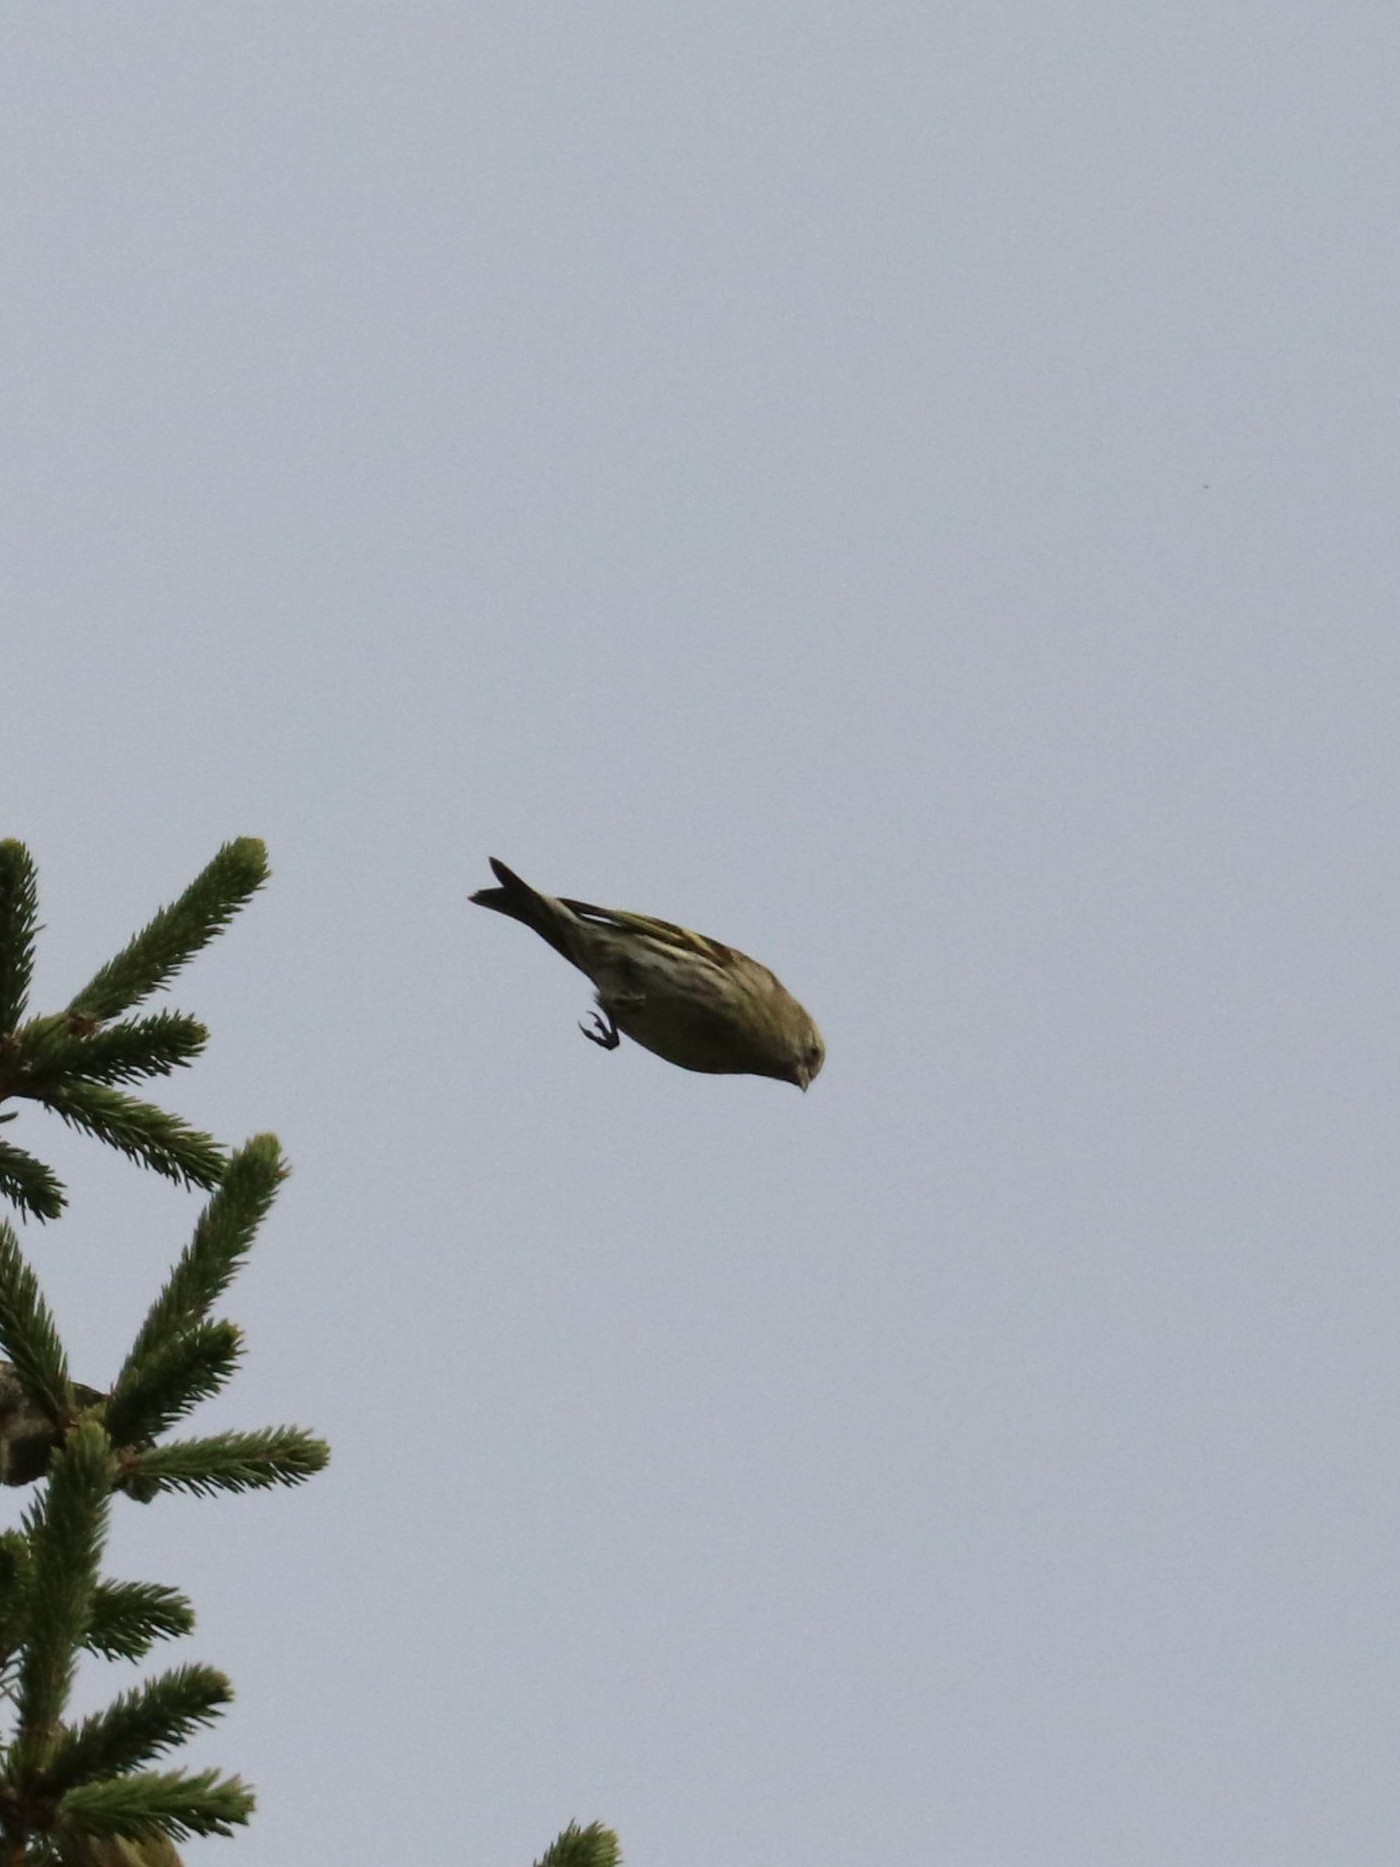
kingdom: Animalia
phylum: Chordata
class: Aves
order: Passeriformes
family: Fringillidae
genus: Spinus
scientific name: Spinus spinus
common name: Eurasian siskin
